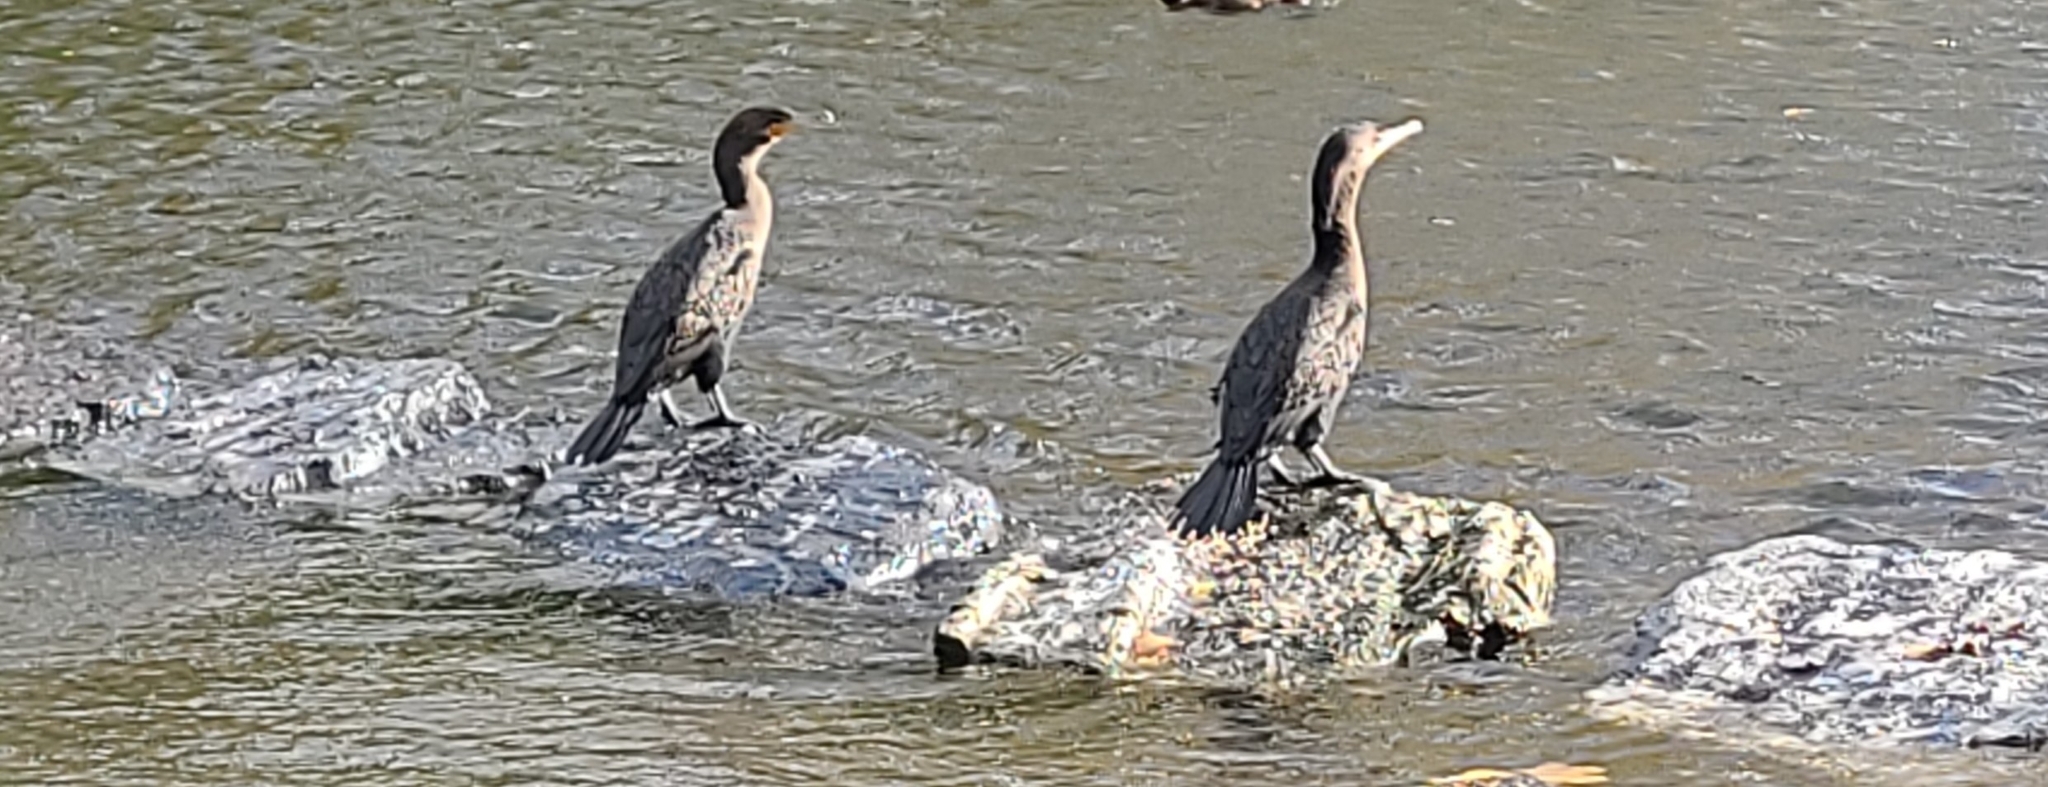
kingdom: Animalia
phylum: Chordata
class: Aves
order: Suliformes
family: Phalacrocoracidae
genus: Phalacrocorax
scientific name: Phalacrocorax auritus
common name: Double-crested cormorant
